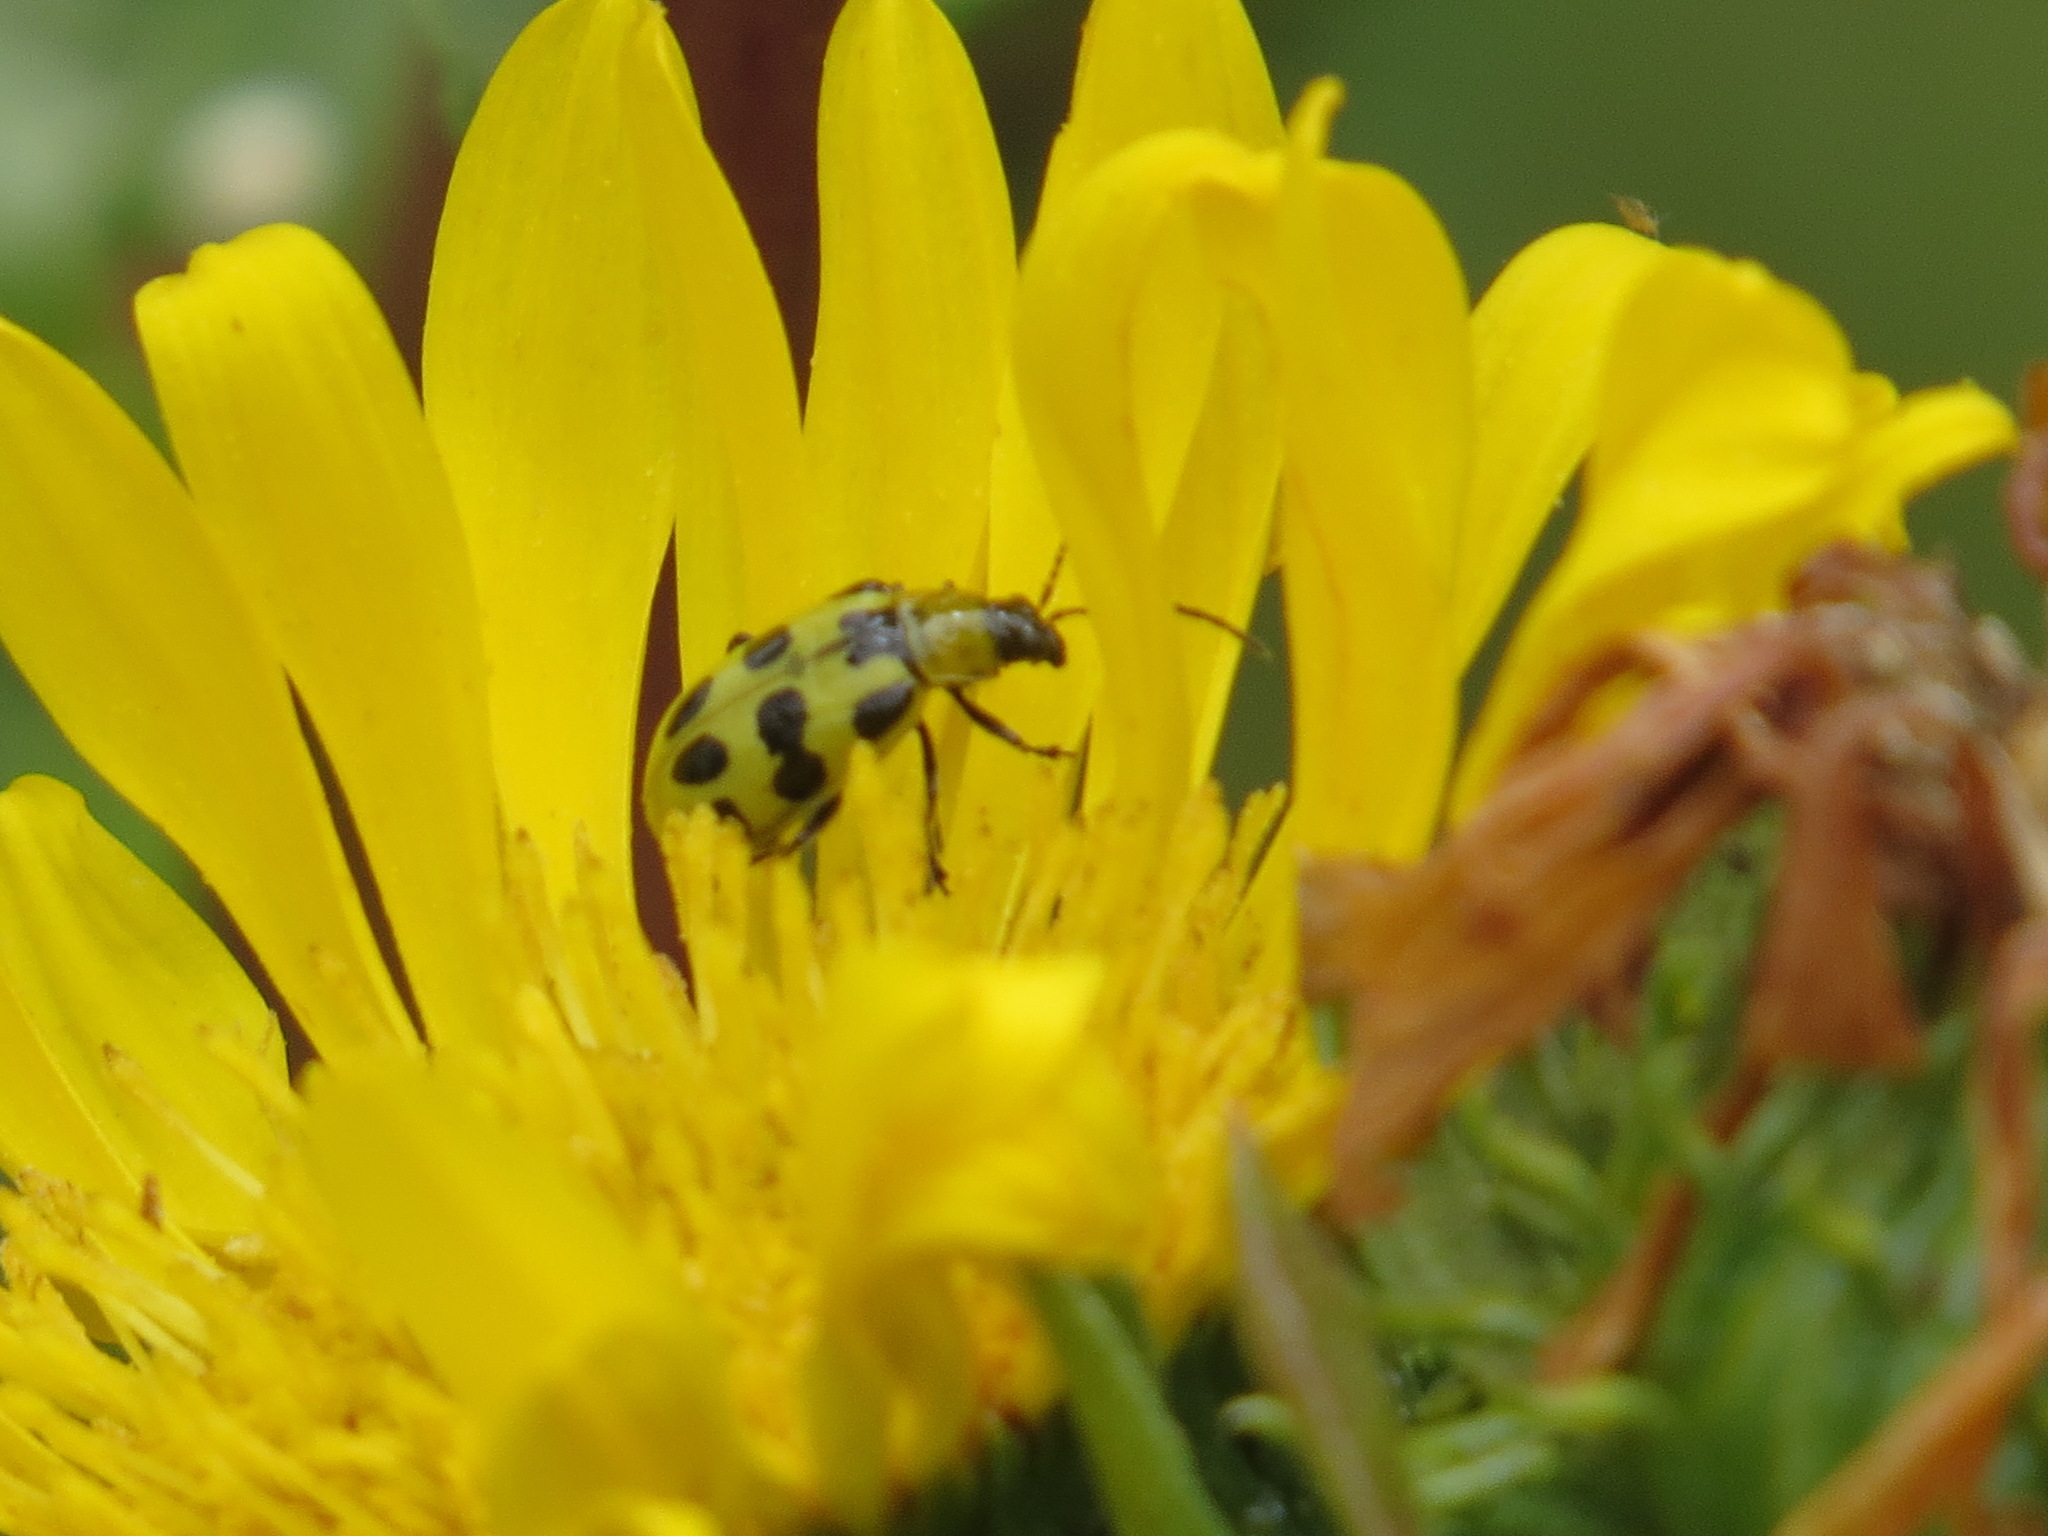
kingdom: Animalia
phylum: Arthropoda
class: Insecta
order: Coleoptera
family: Chrysomelidae
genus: Diabrotica
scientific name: Diabrotica undecimpunctata
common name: Spotted cucumber beetle
